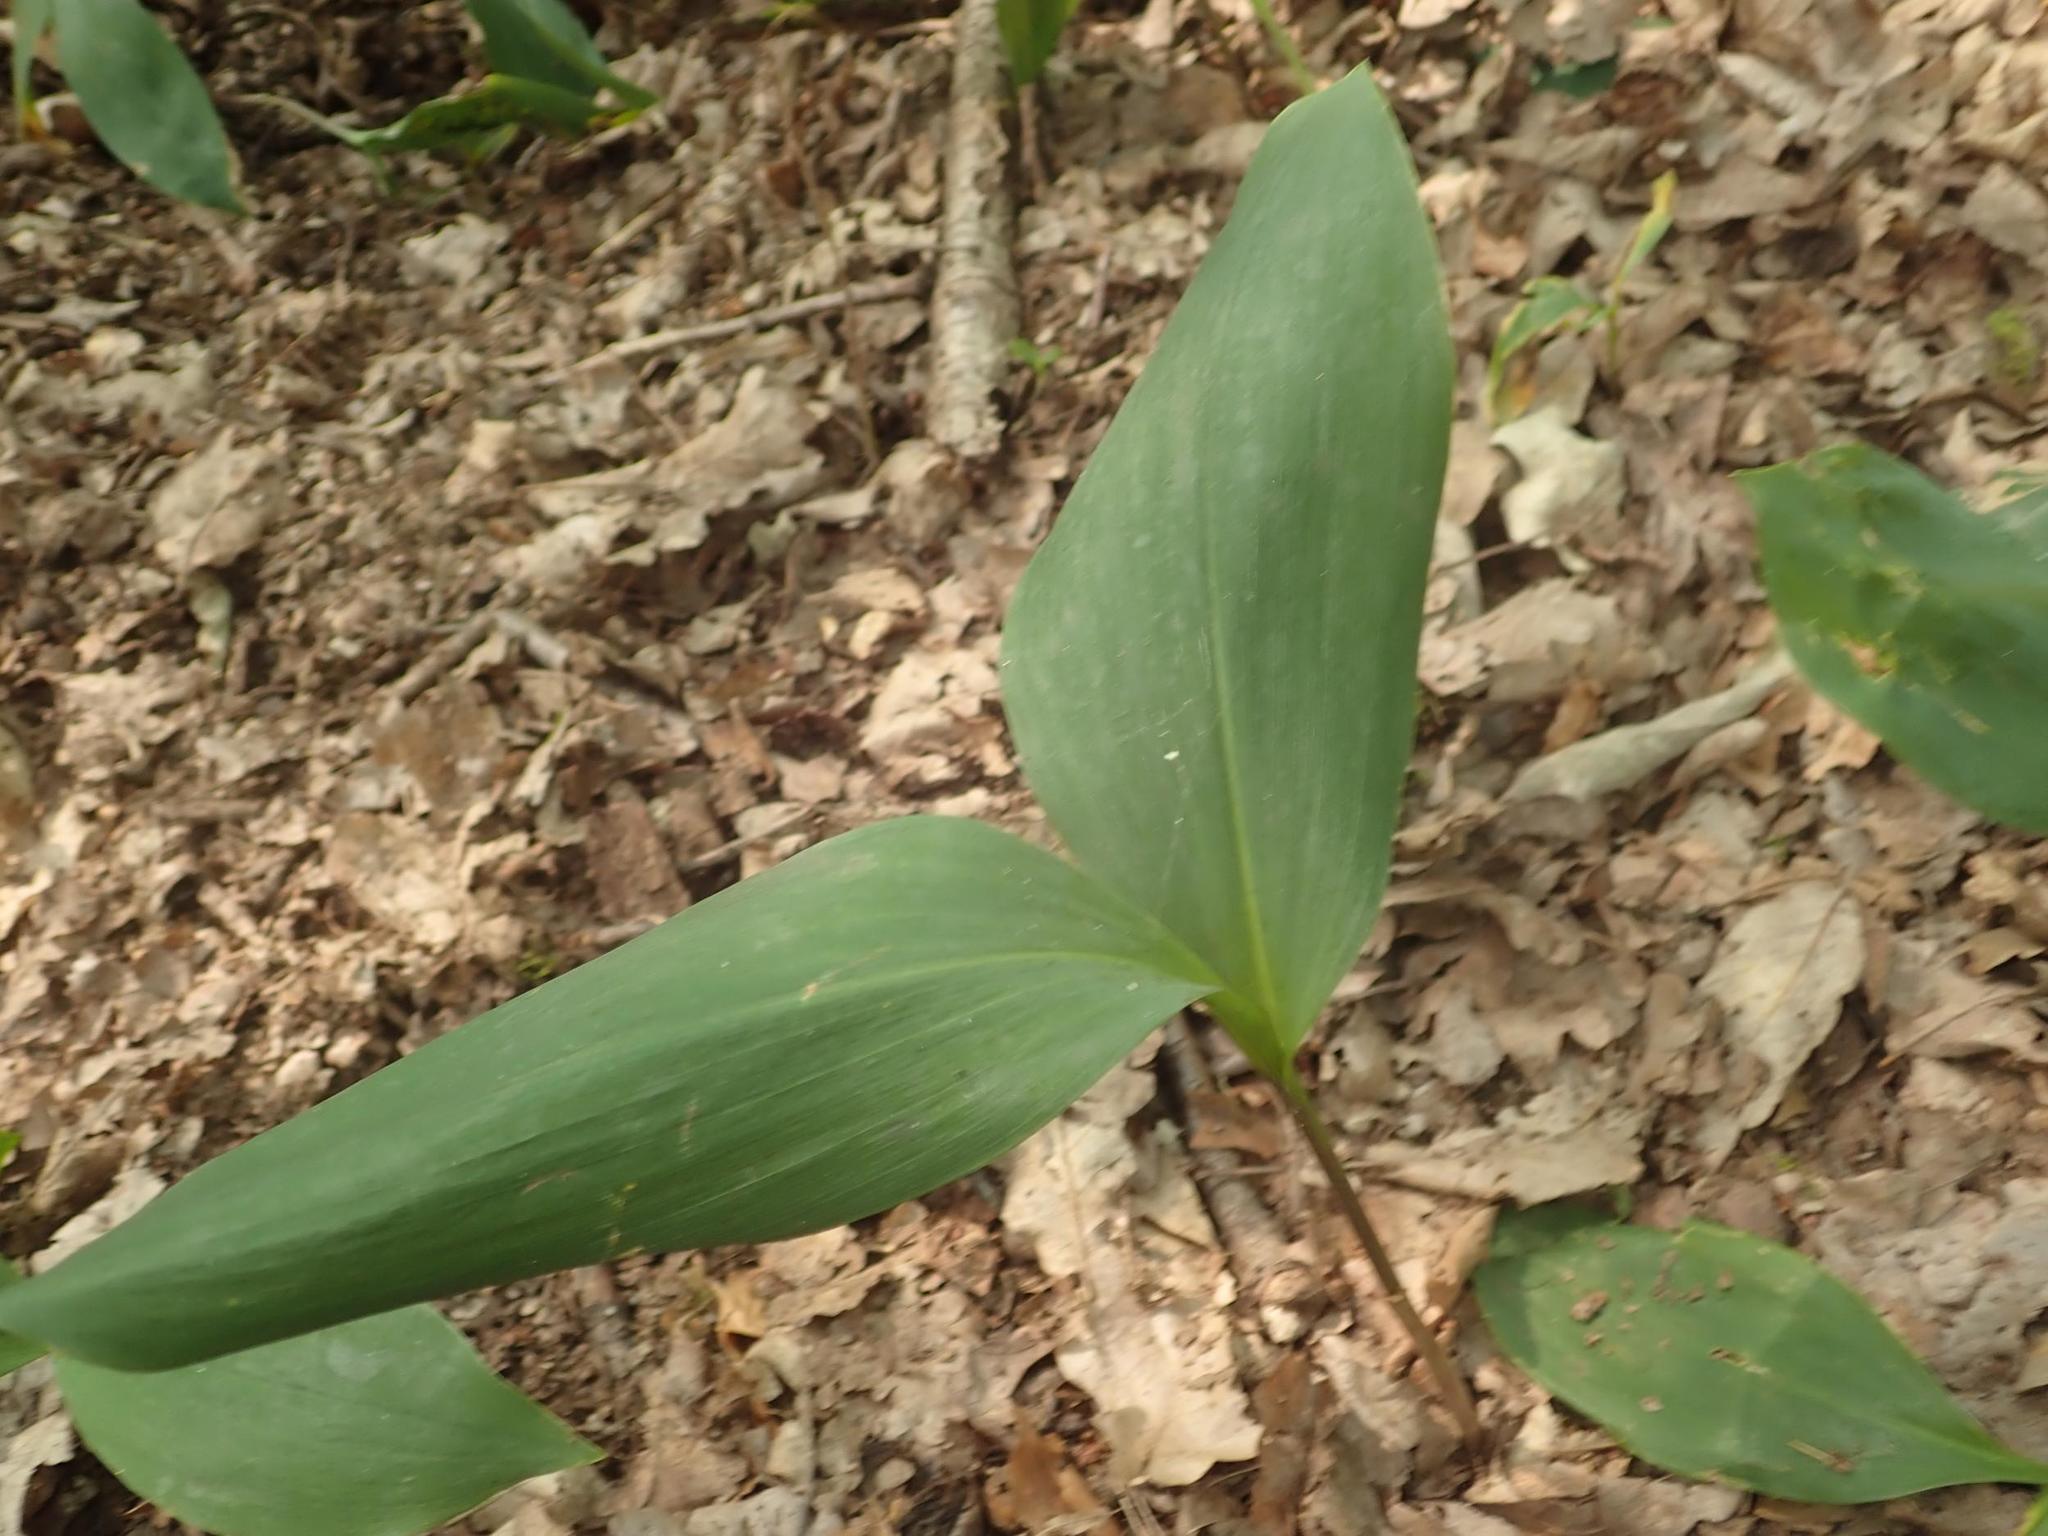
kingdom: Plantae
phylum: Tracheophyta
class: Liliopsida
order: Asparagales
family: Asparagaceae
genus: Convallaria
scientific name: Convallaria majalis
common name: Lily-of-the-valley
